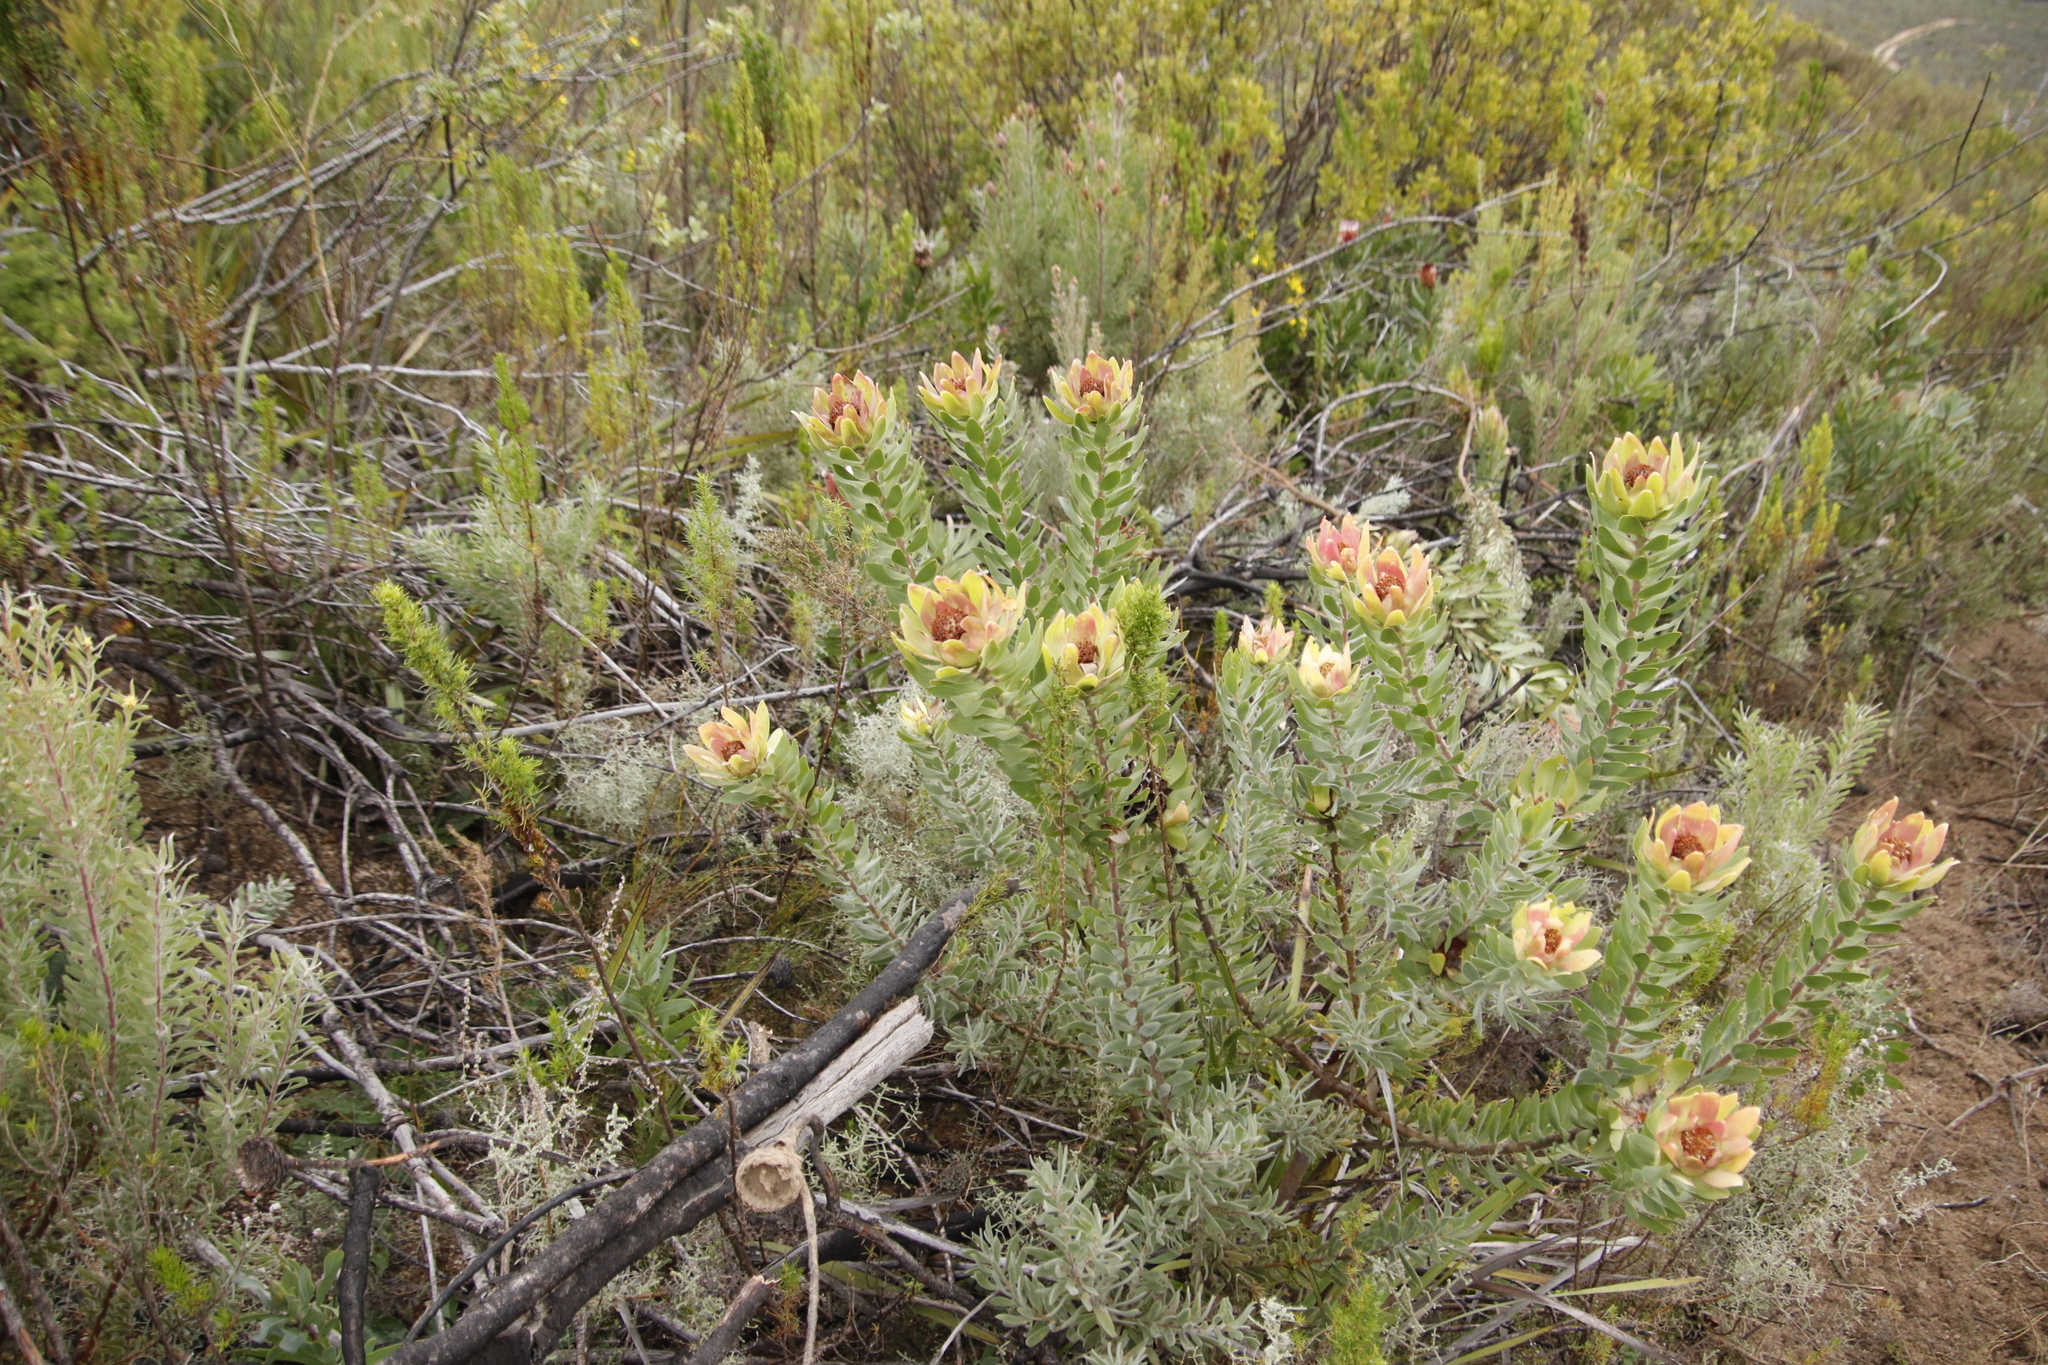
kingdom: Plantae
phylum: Tracheophyta
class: Magnoliopsida
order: Proteales
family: Proteaceae
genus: Leucadendron
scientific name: Leucadendron daphnoides
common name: Du toit's kloof conebush
